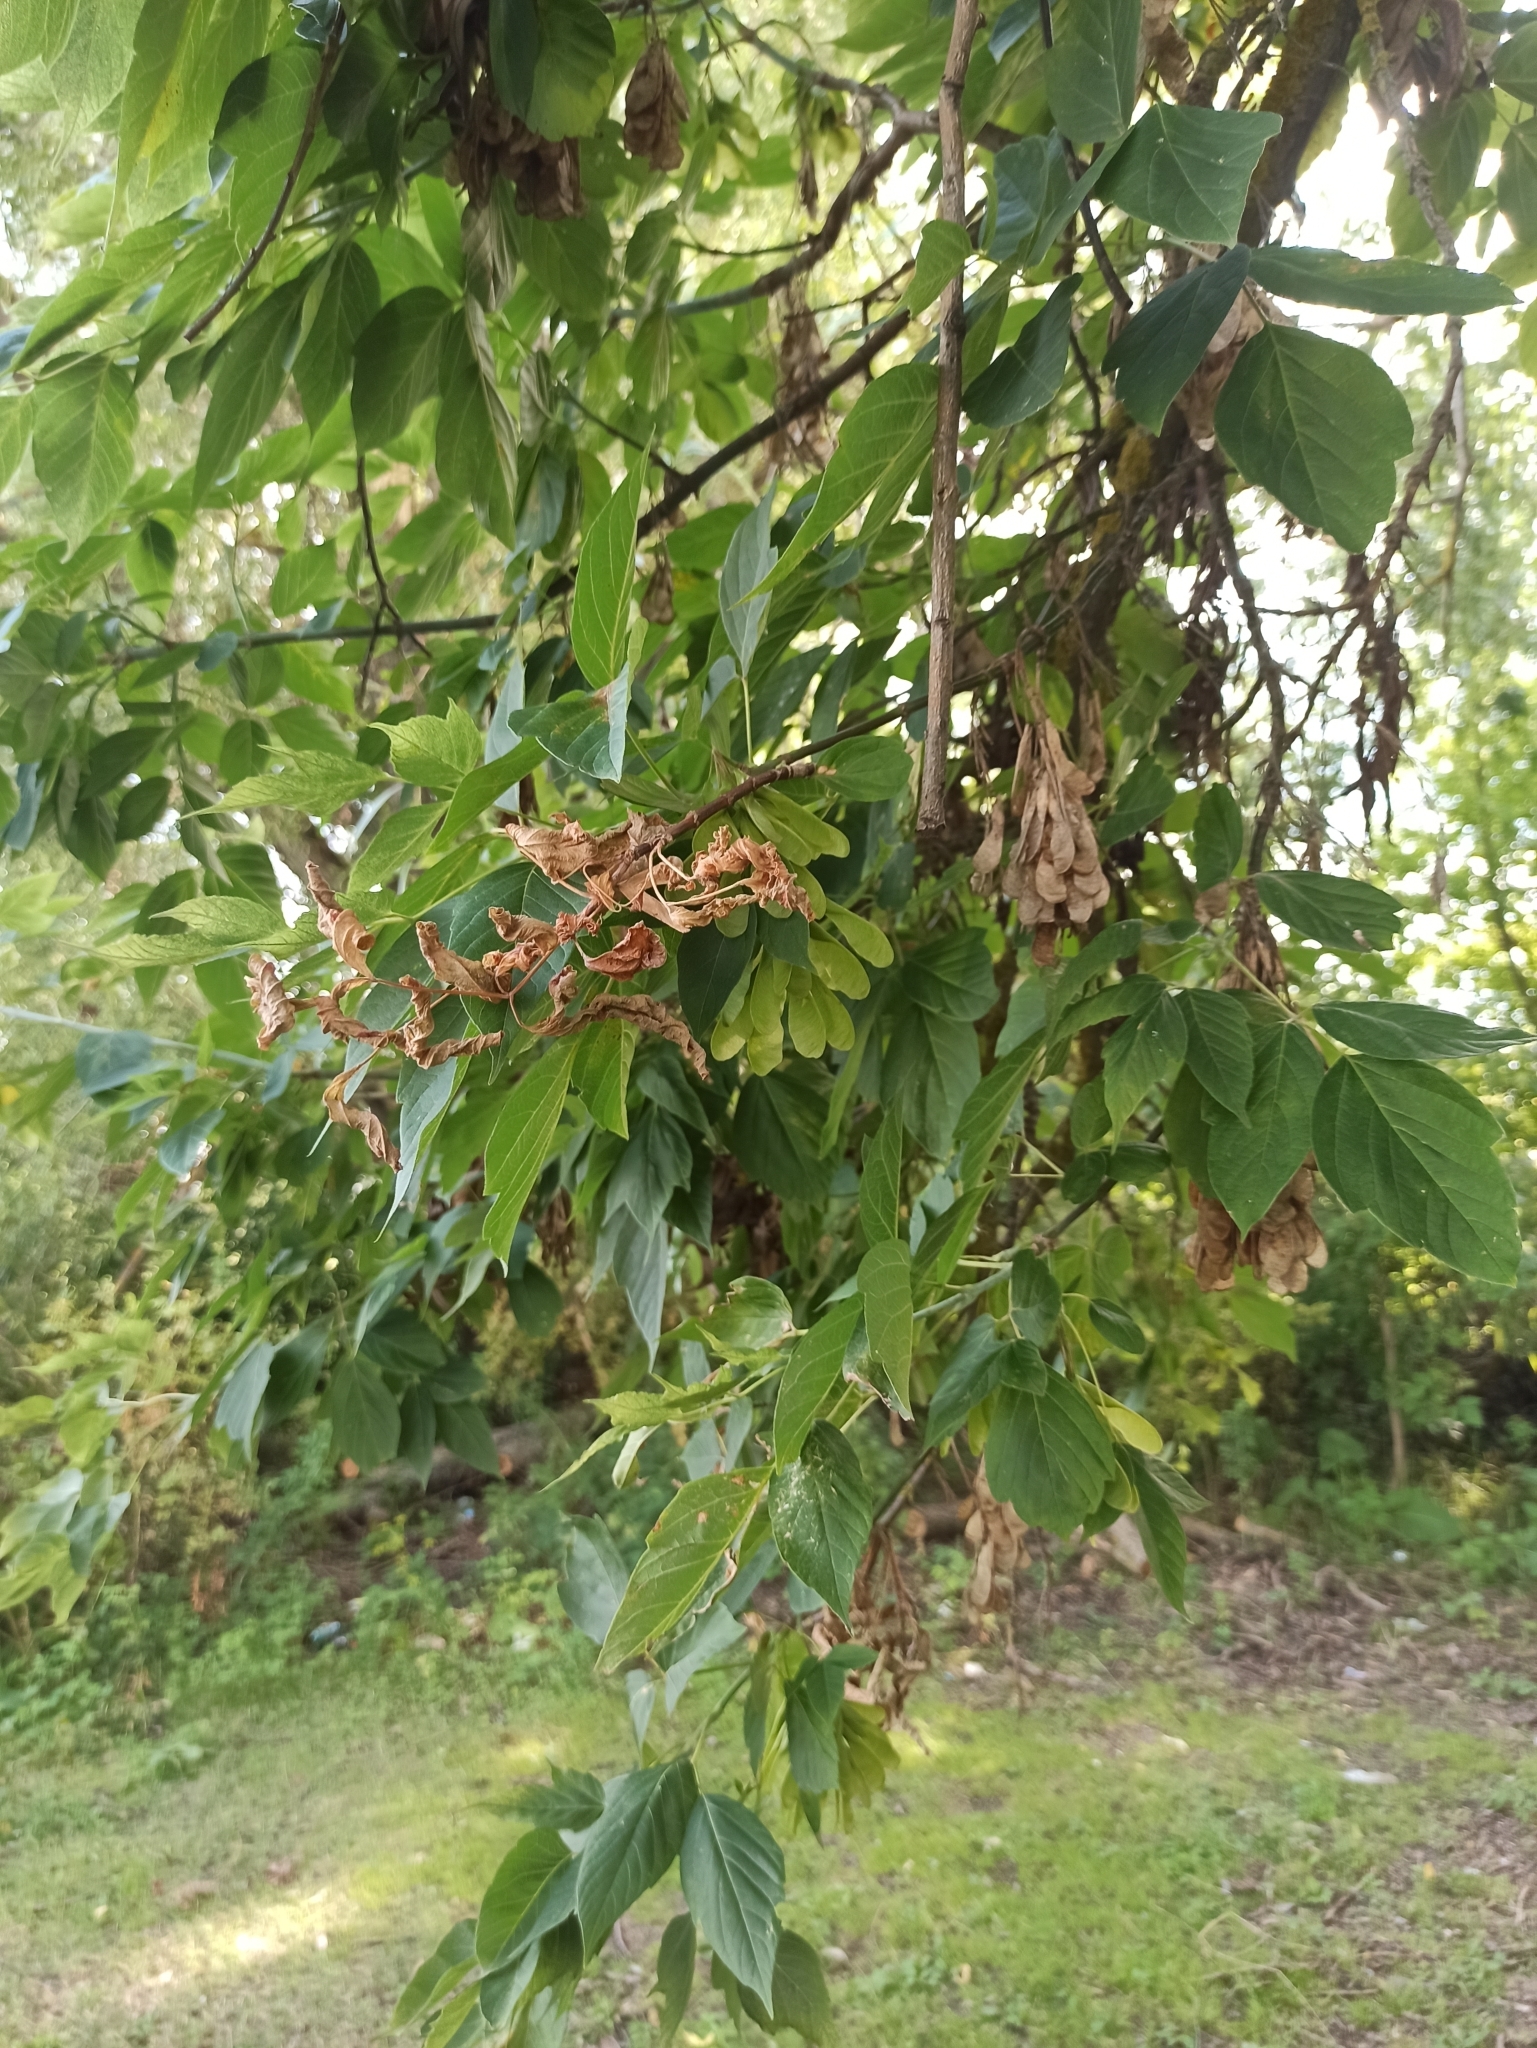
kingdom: Plantae
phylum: Tracheophyta
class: Magnoliopsida
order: Sapindales
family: Sapindaceae
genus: Acer
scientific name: Acer negundo
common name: Ashleaf maple
